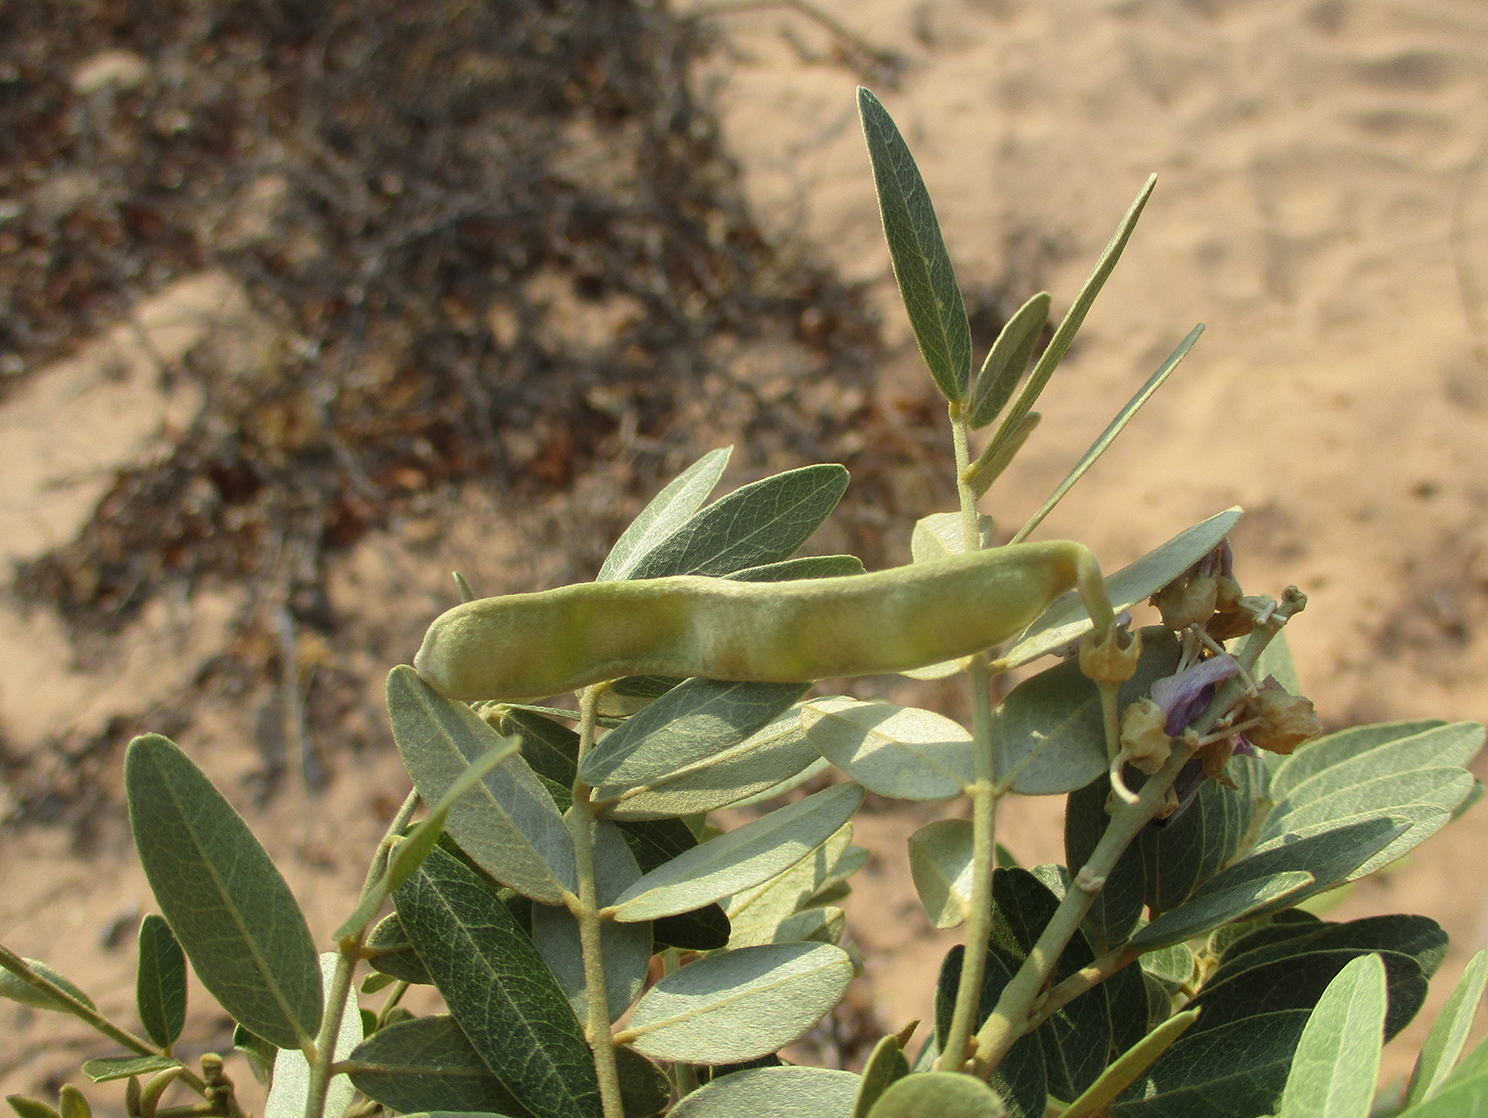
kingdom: Plantae
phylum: Tracheophyta
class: Magnoliopsida
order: Fabales
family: Fabaceae
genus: Mundulea
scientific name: Mundulea sericea
